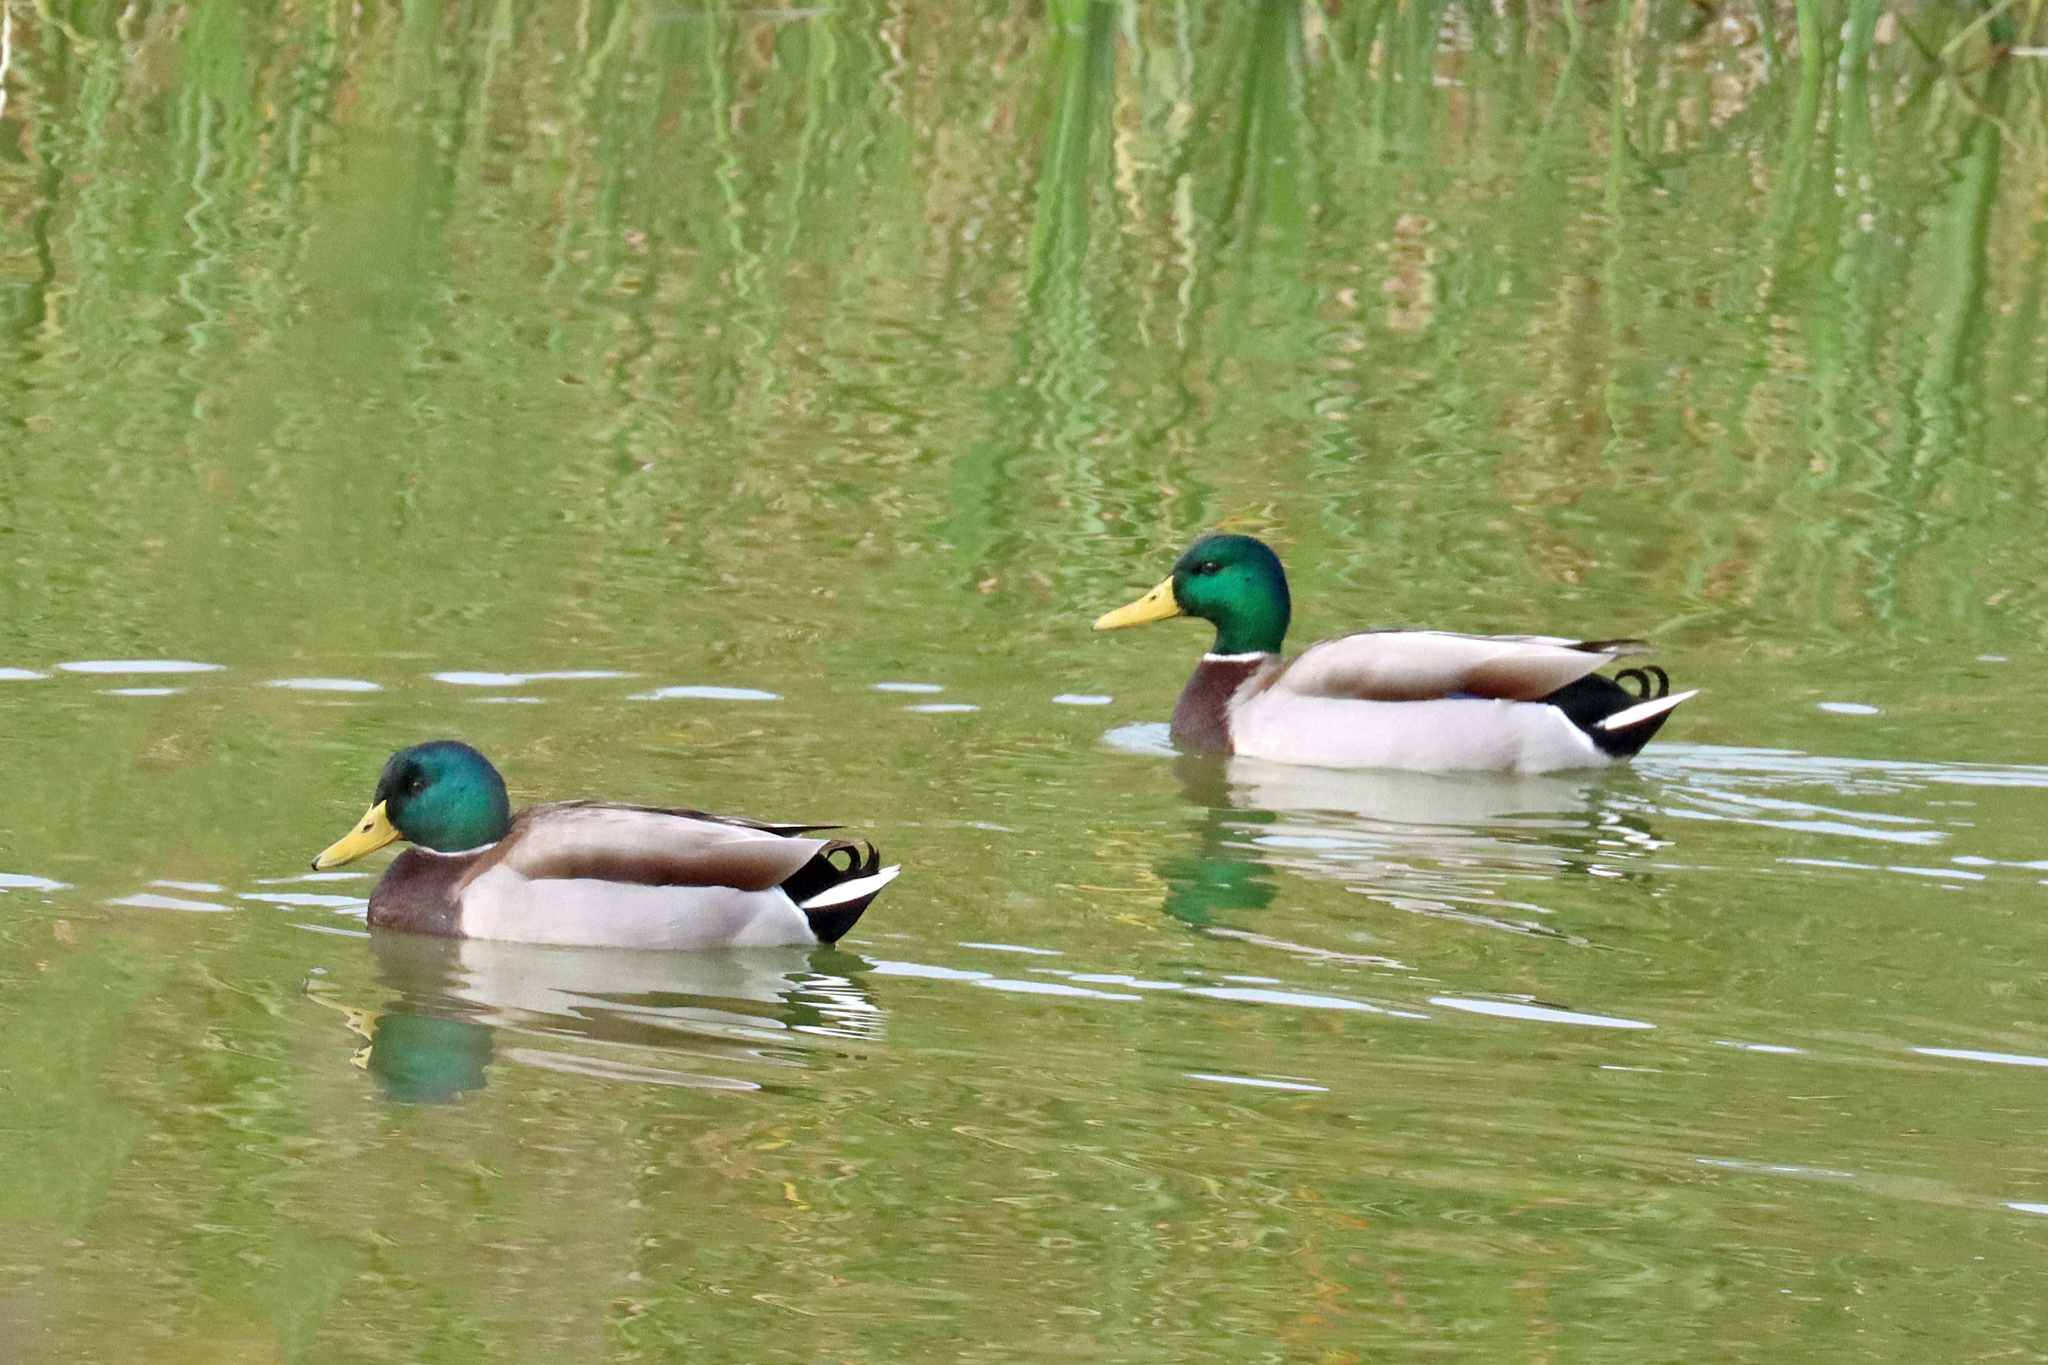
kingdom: Animalia
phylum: Chordata
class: Aves
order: Anseriformes
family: Anatidae
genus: Anas
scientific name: Anas platyrhynchos
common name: Mallard
